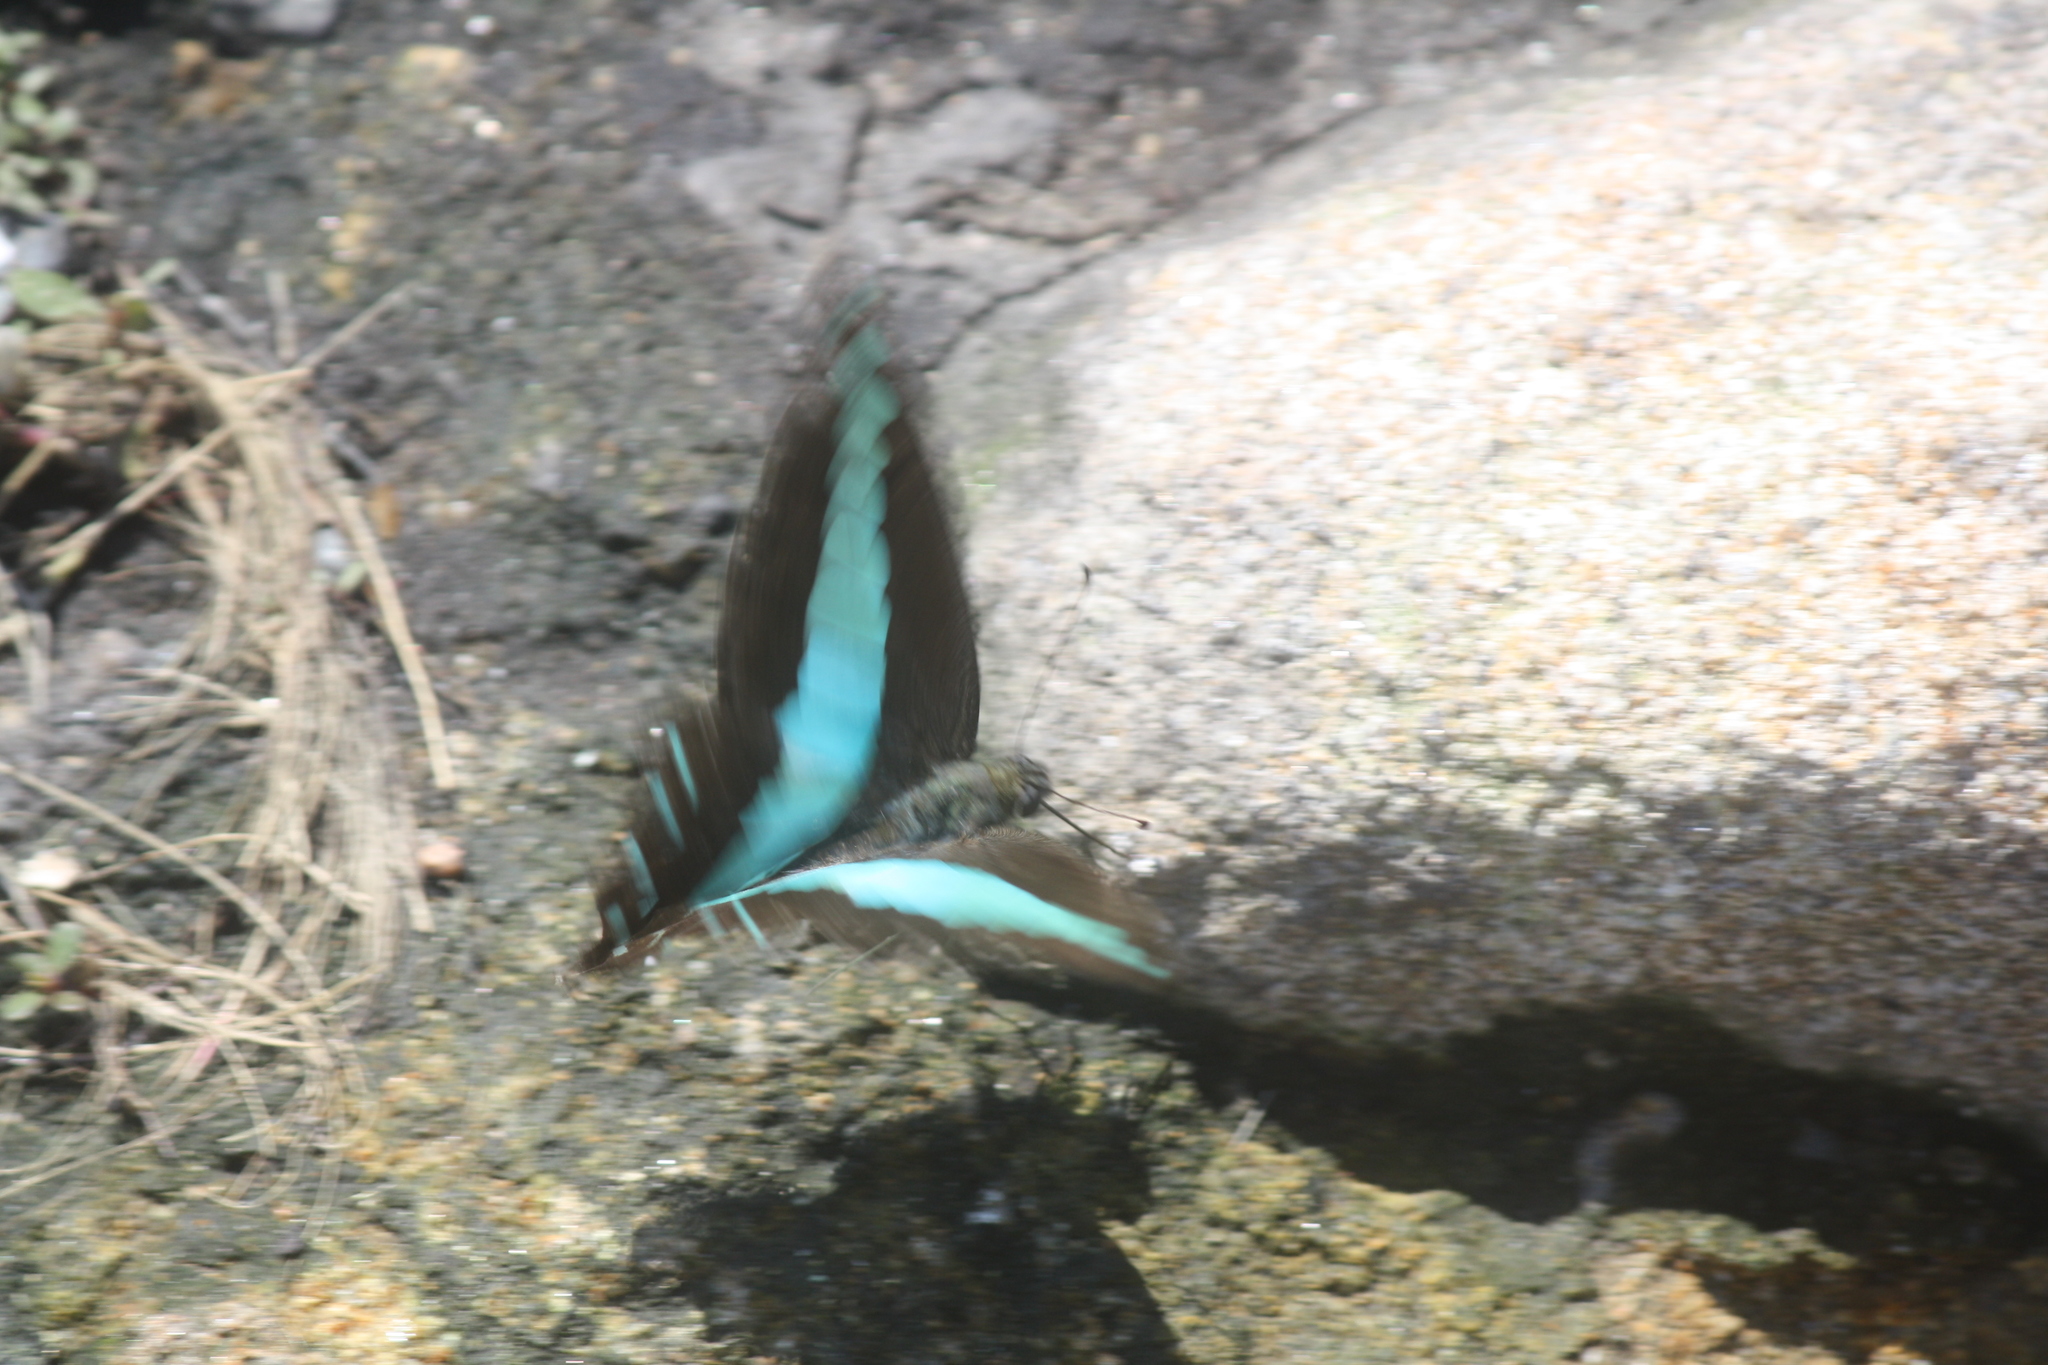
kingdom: Fungi
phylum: Ascomycota
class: Sordariomycetes
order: Microascales
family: Microascaceae
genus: Graphium
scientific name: Graphium sarpedon
